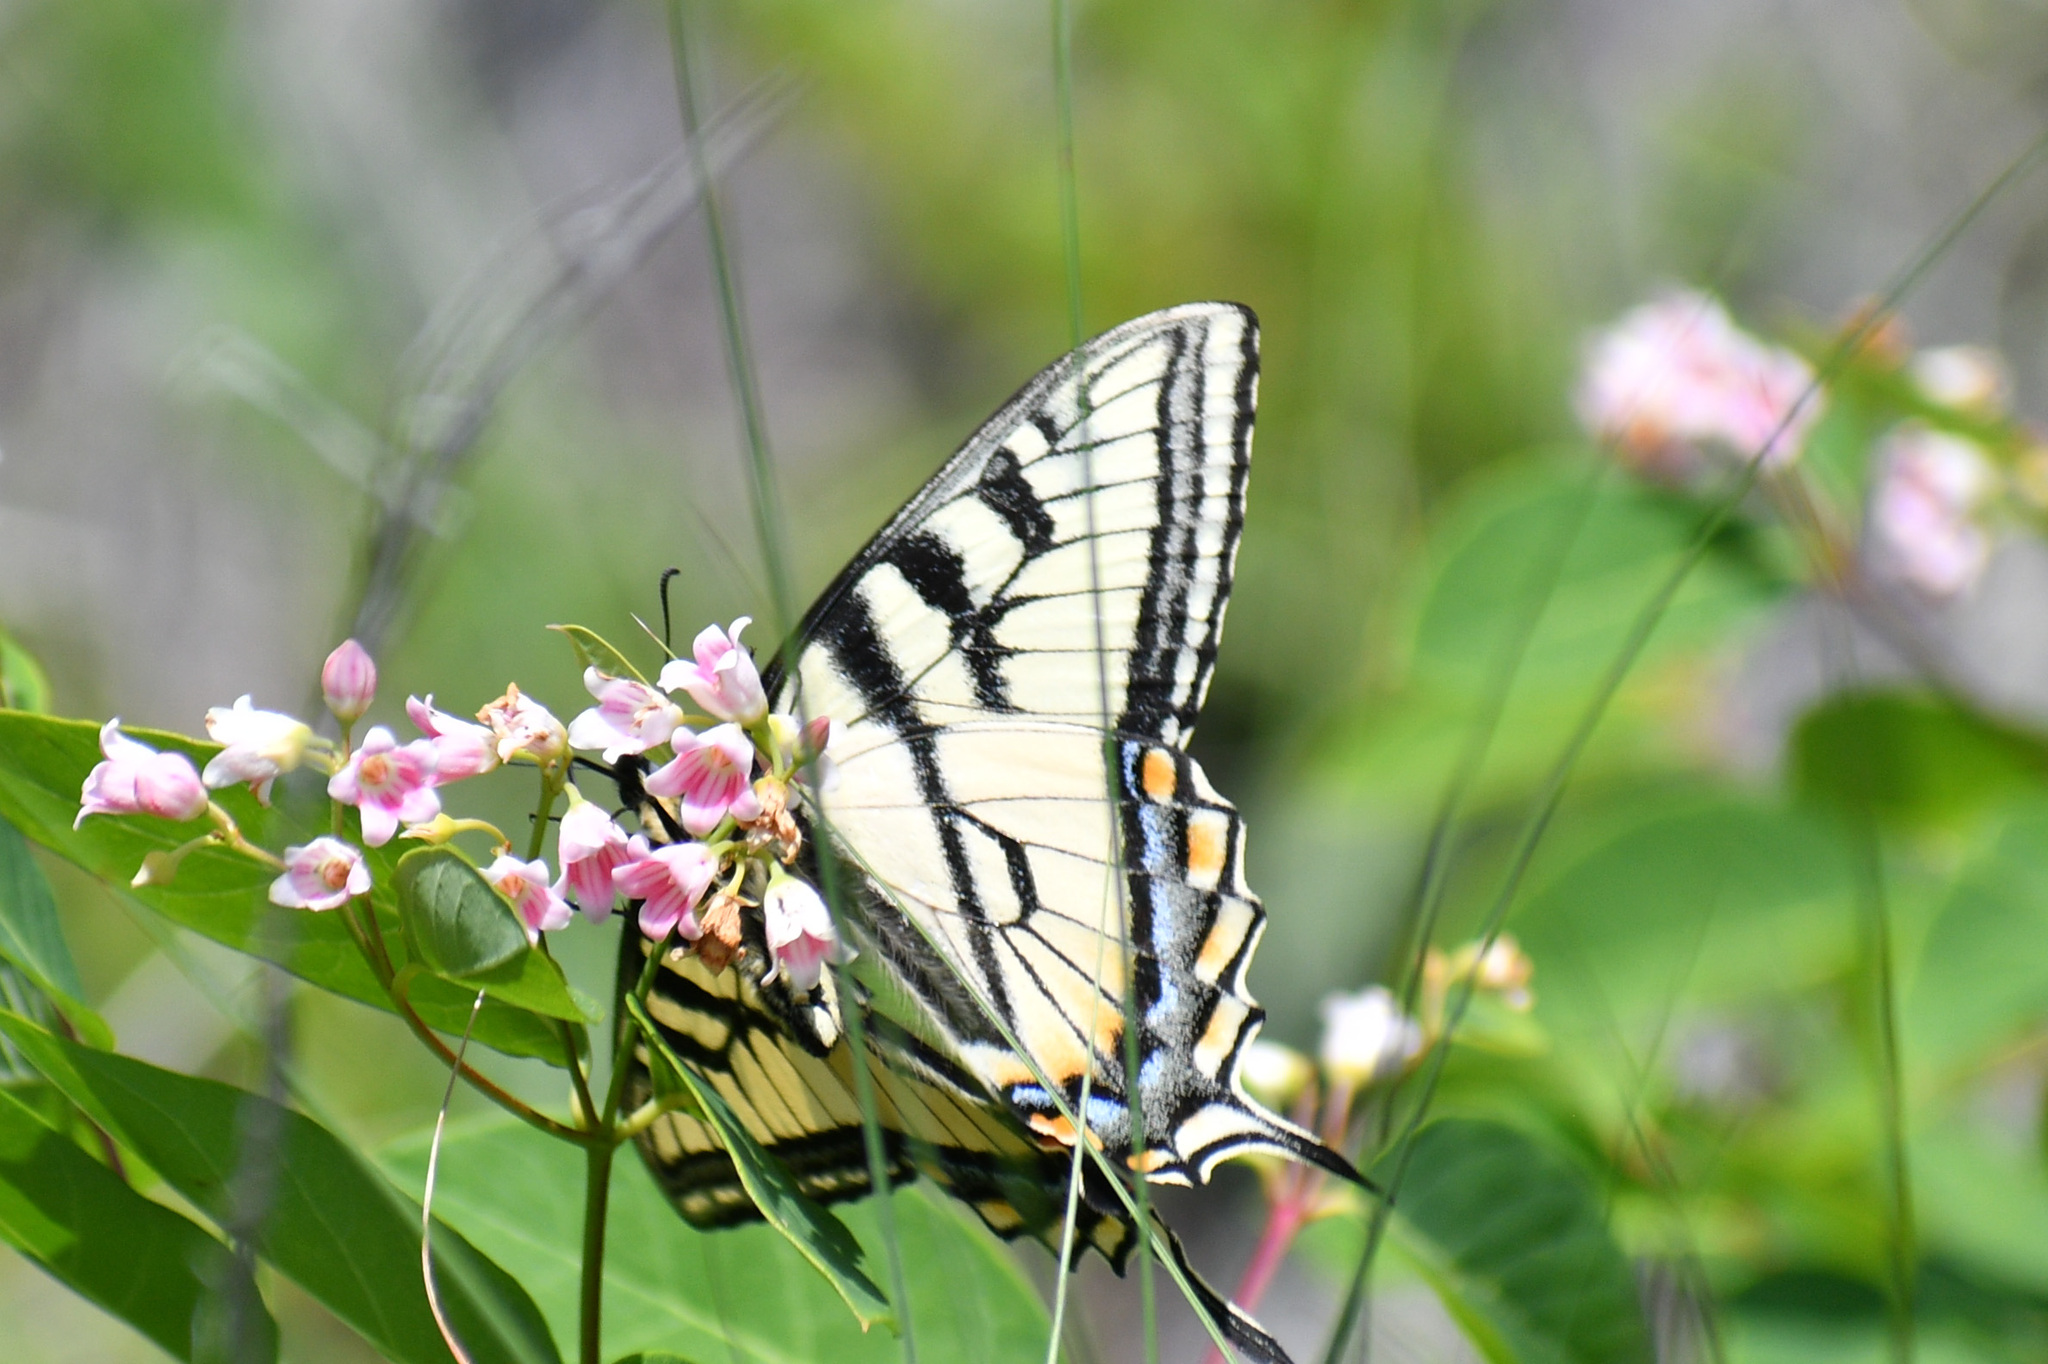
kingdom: Animalia
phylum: Arthropoda
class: Insecta
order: Lepidoptera
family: Papilionidae
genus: Papilio
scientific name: Papilio canadensis
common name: Canadian tiger swallowtail
